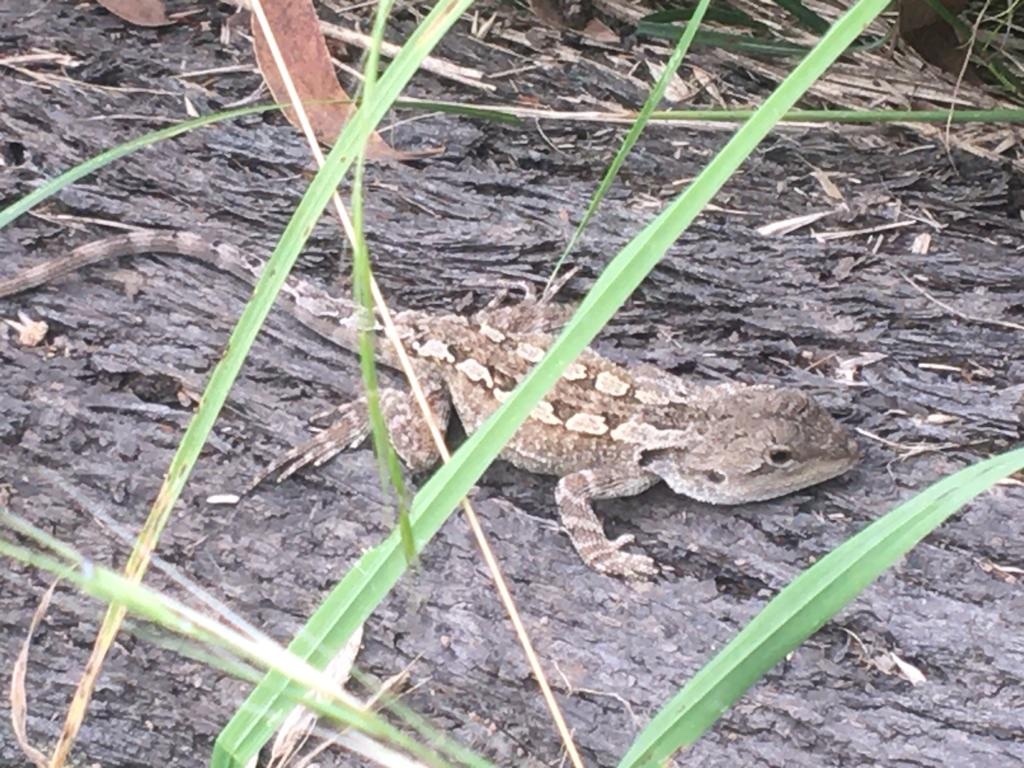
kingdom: Animalia
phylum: Chordata
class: Squamata
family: Agamidae
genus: Amphibolurus
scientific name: Amphibolurus muricatus
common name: Jacky lizard
